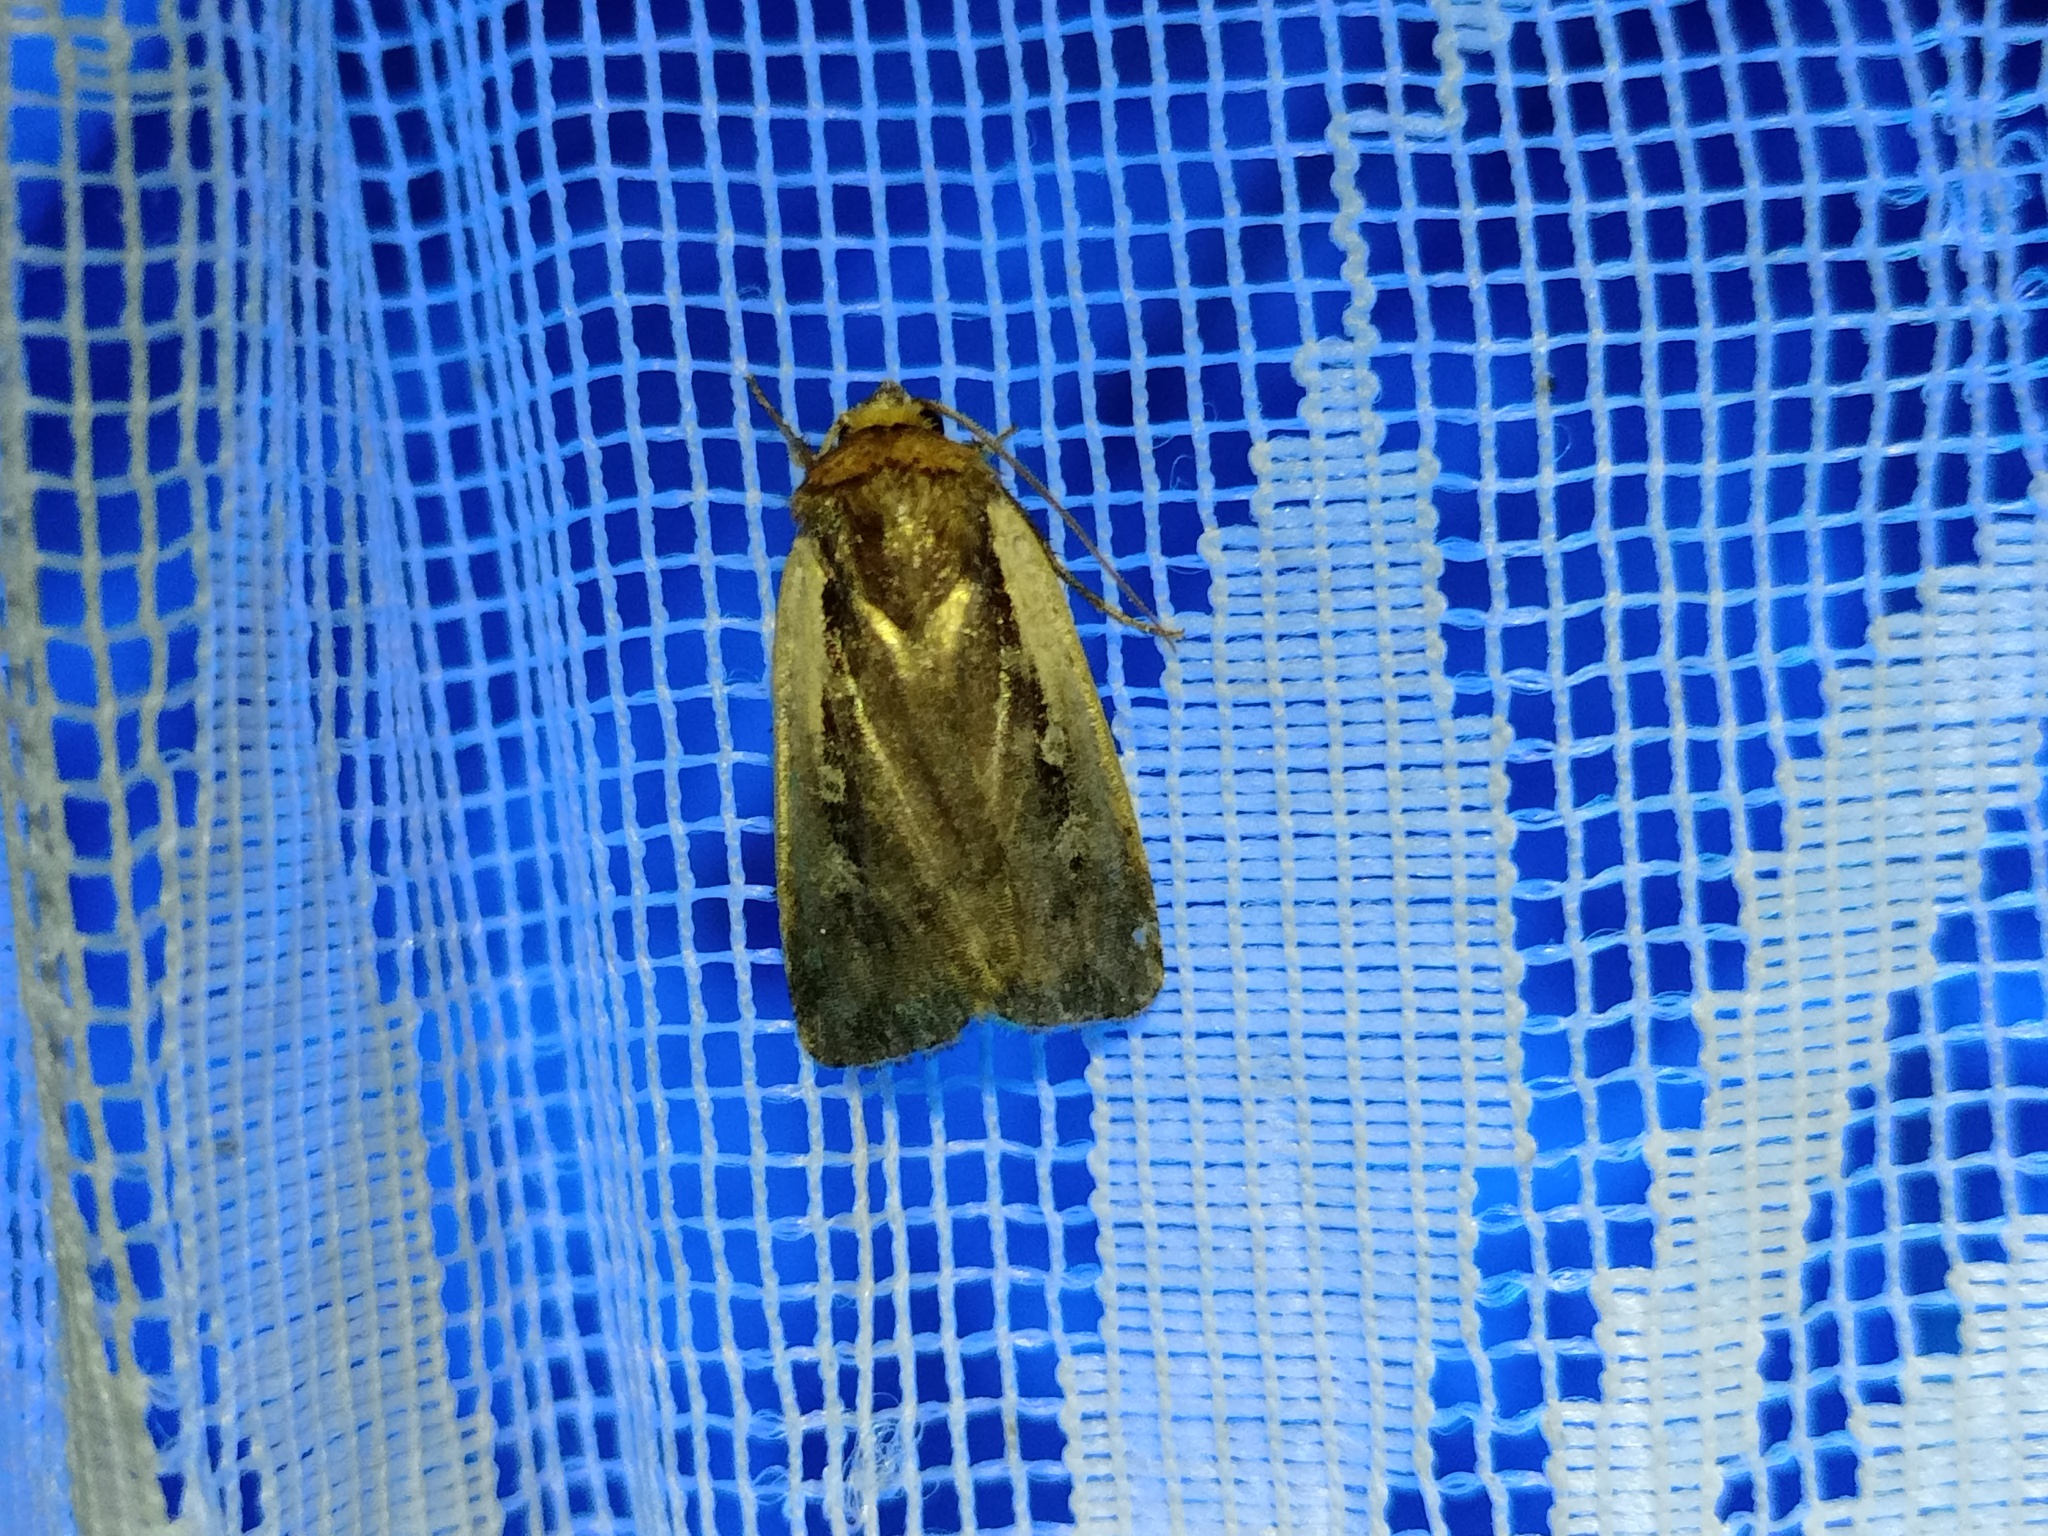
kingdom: Animalia
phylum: Arthropoda
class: Insecta
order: Lepidoptera
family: Noctuidae
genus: Ochropleura
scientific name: Ochropleura plecta
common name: Flame shoulder
